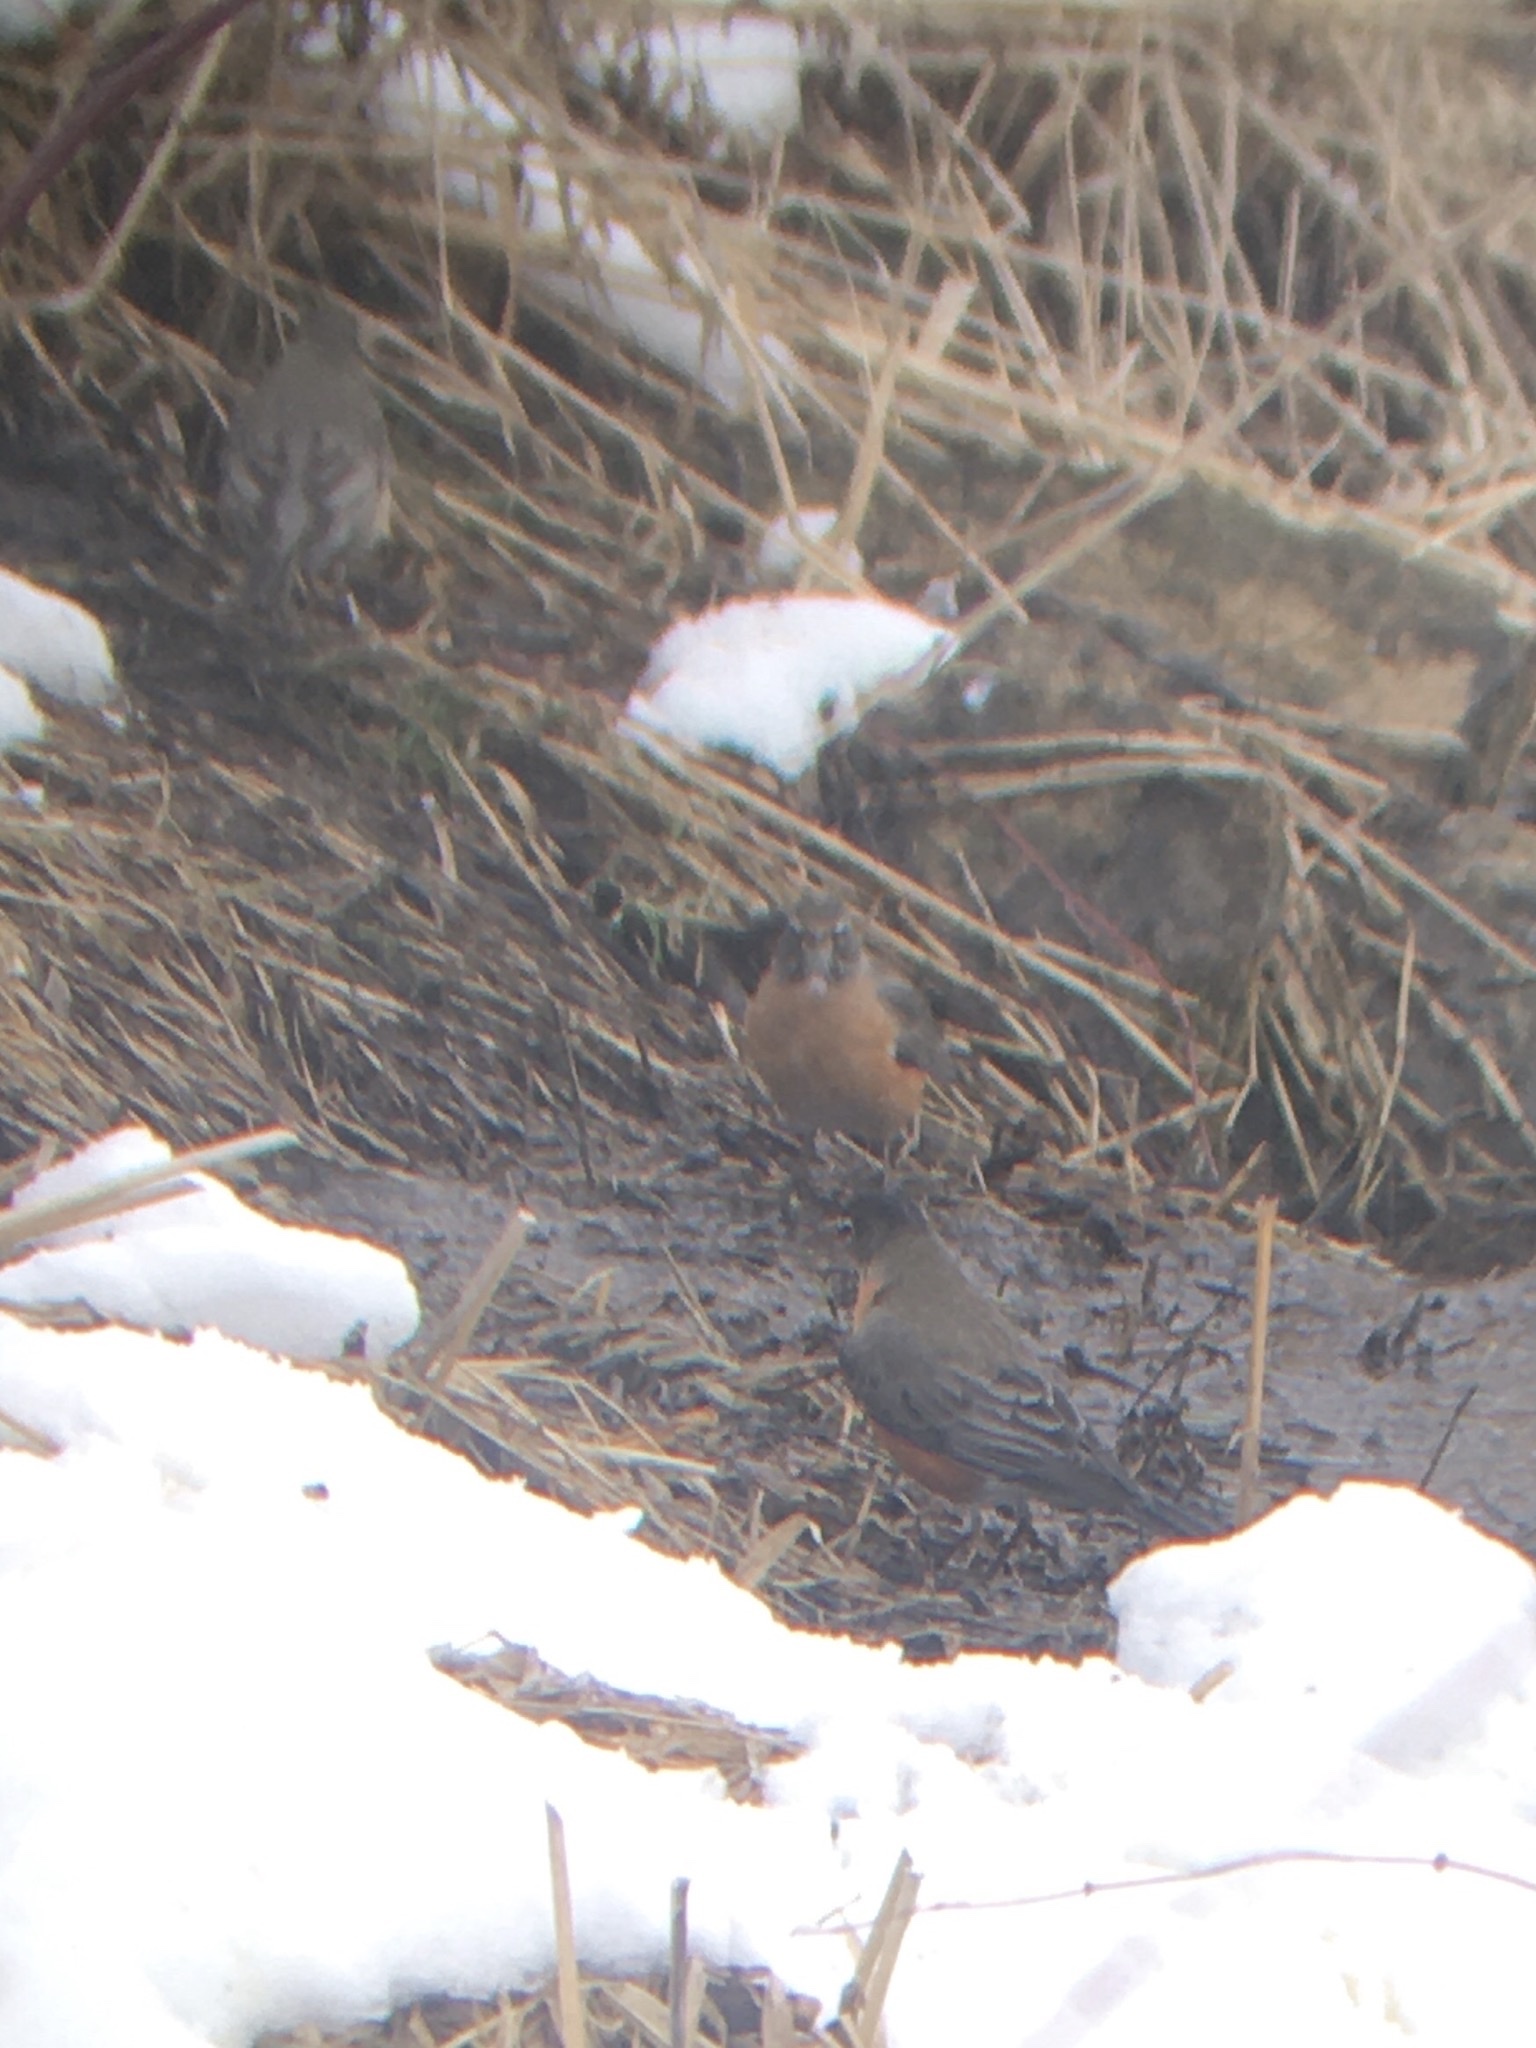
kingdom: Animalia
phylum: Chordata
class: Aves
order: Passeriformes
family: Turdidae
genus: Turdus
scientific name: Turdus migratorius
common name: American robin
